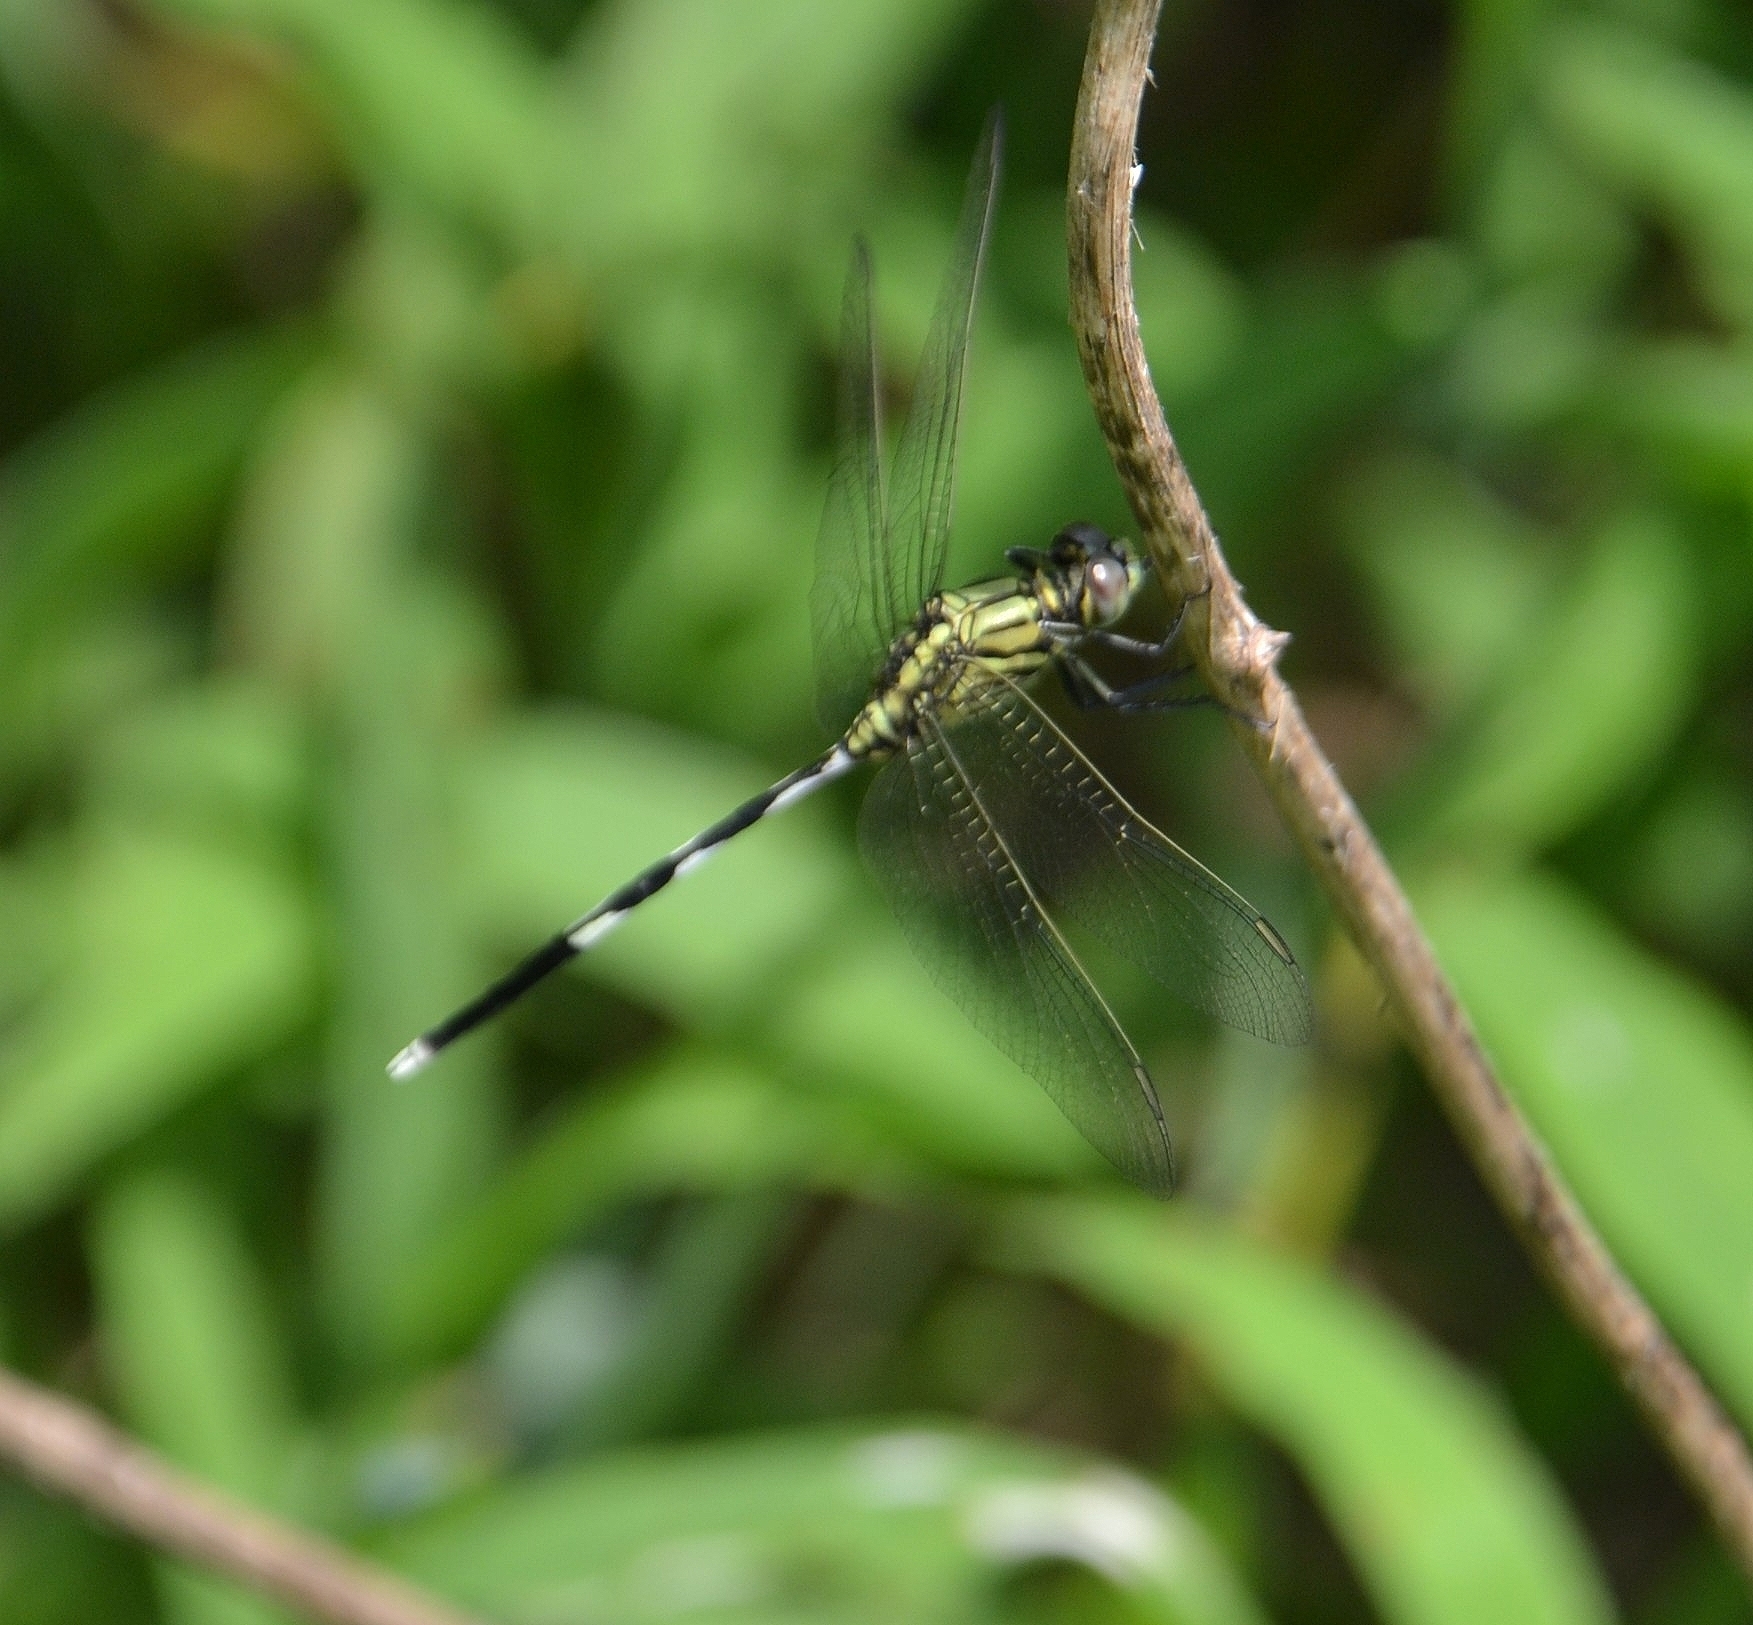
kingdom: Animalia
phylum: Arthropoda
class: Insecta
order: Odonata
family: Libellulidae
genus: Orthetrum
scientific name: Orthetrum sabina
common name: Slender skimmer
